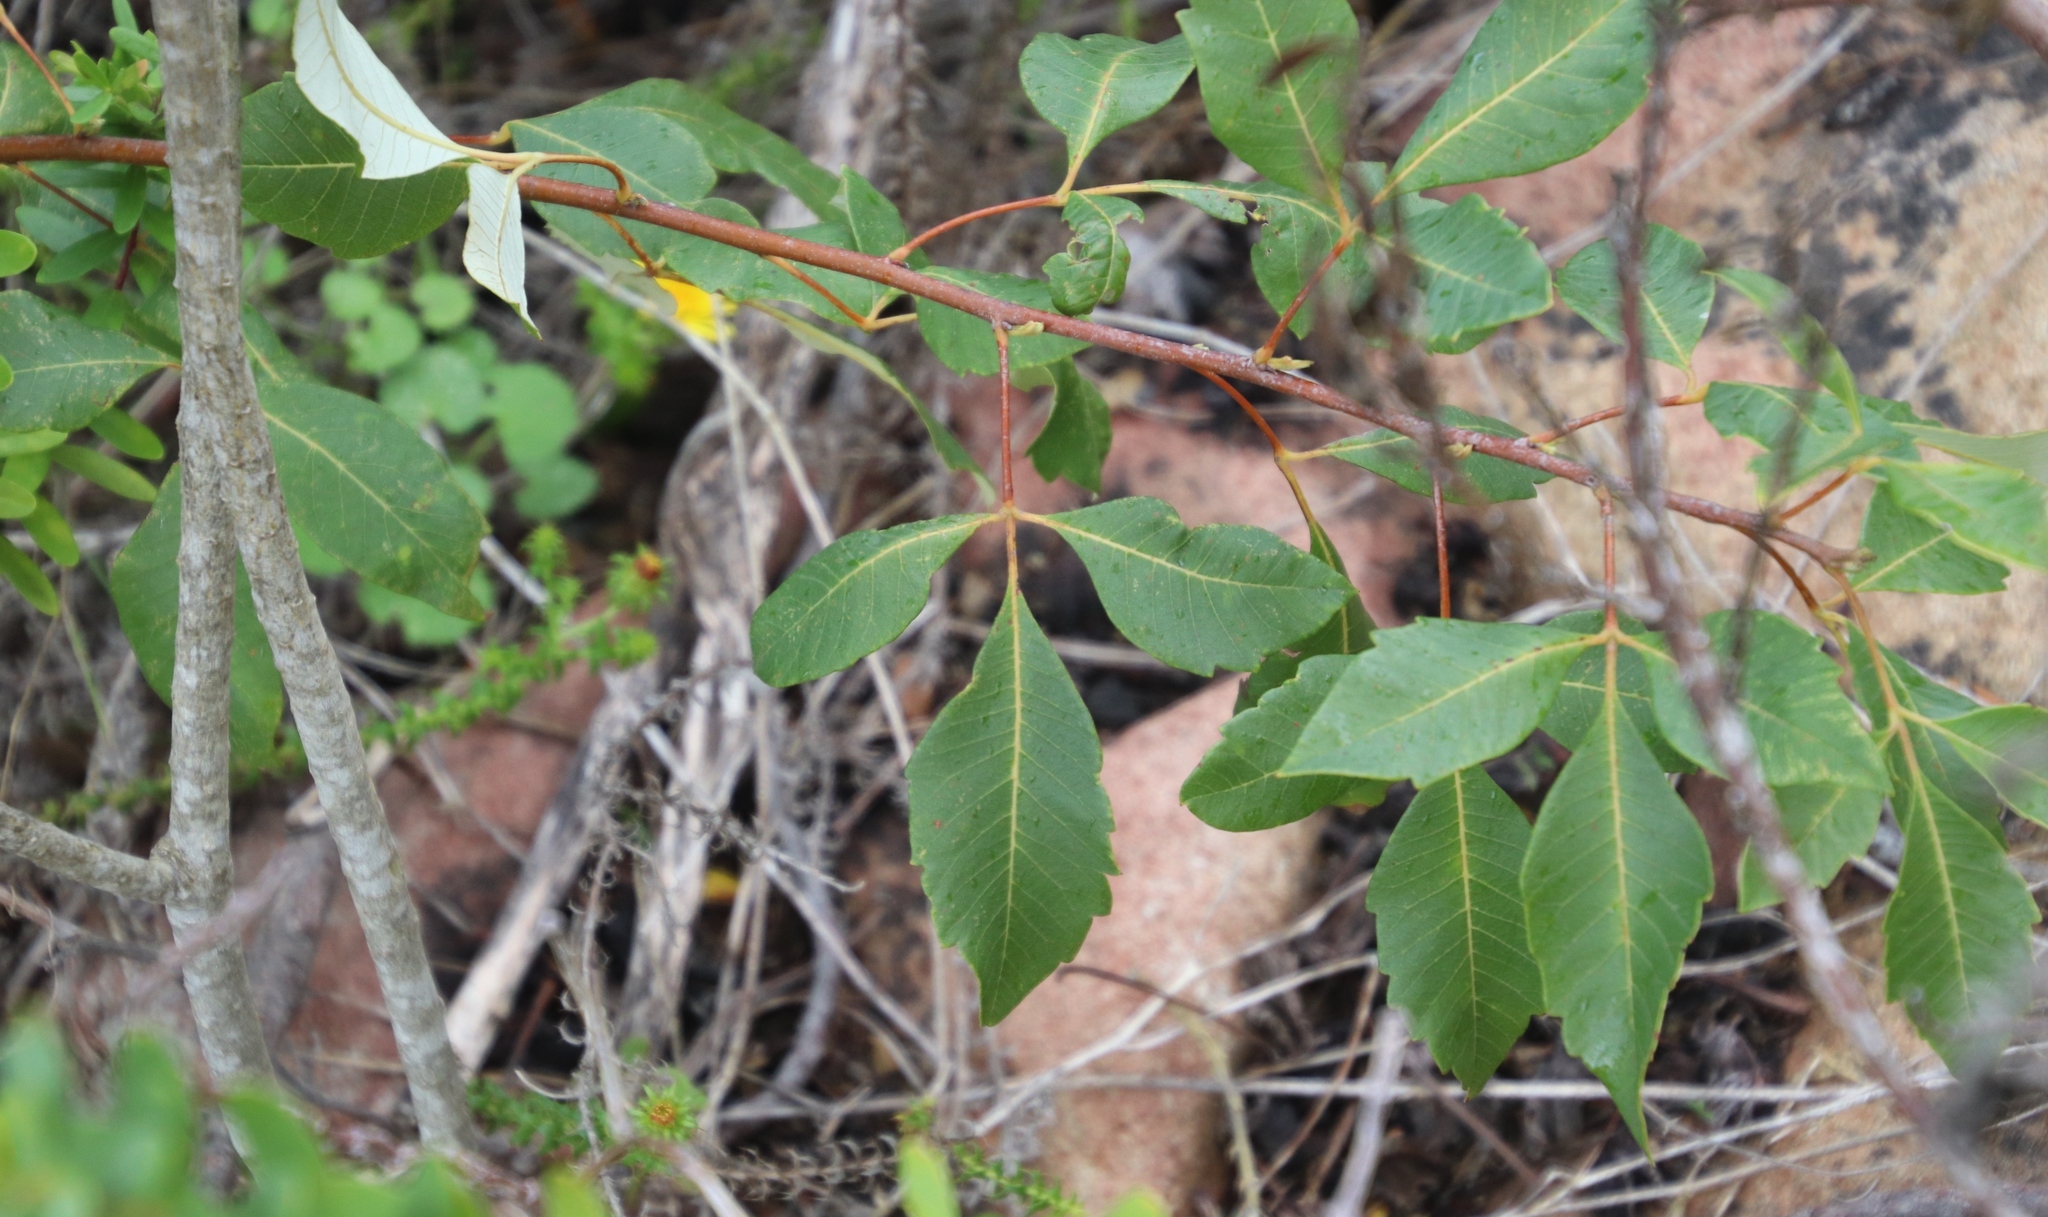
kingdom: Plantae
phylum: Tracheophyta
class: Magnoliopsida
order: Sapindales
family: Anacardiaceae
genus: Searsia
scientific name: Searsia tomentosa
